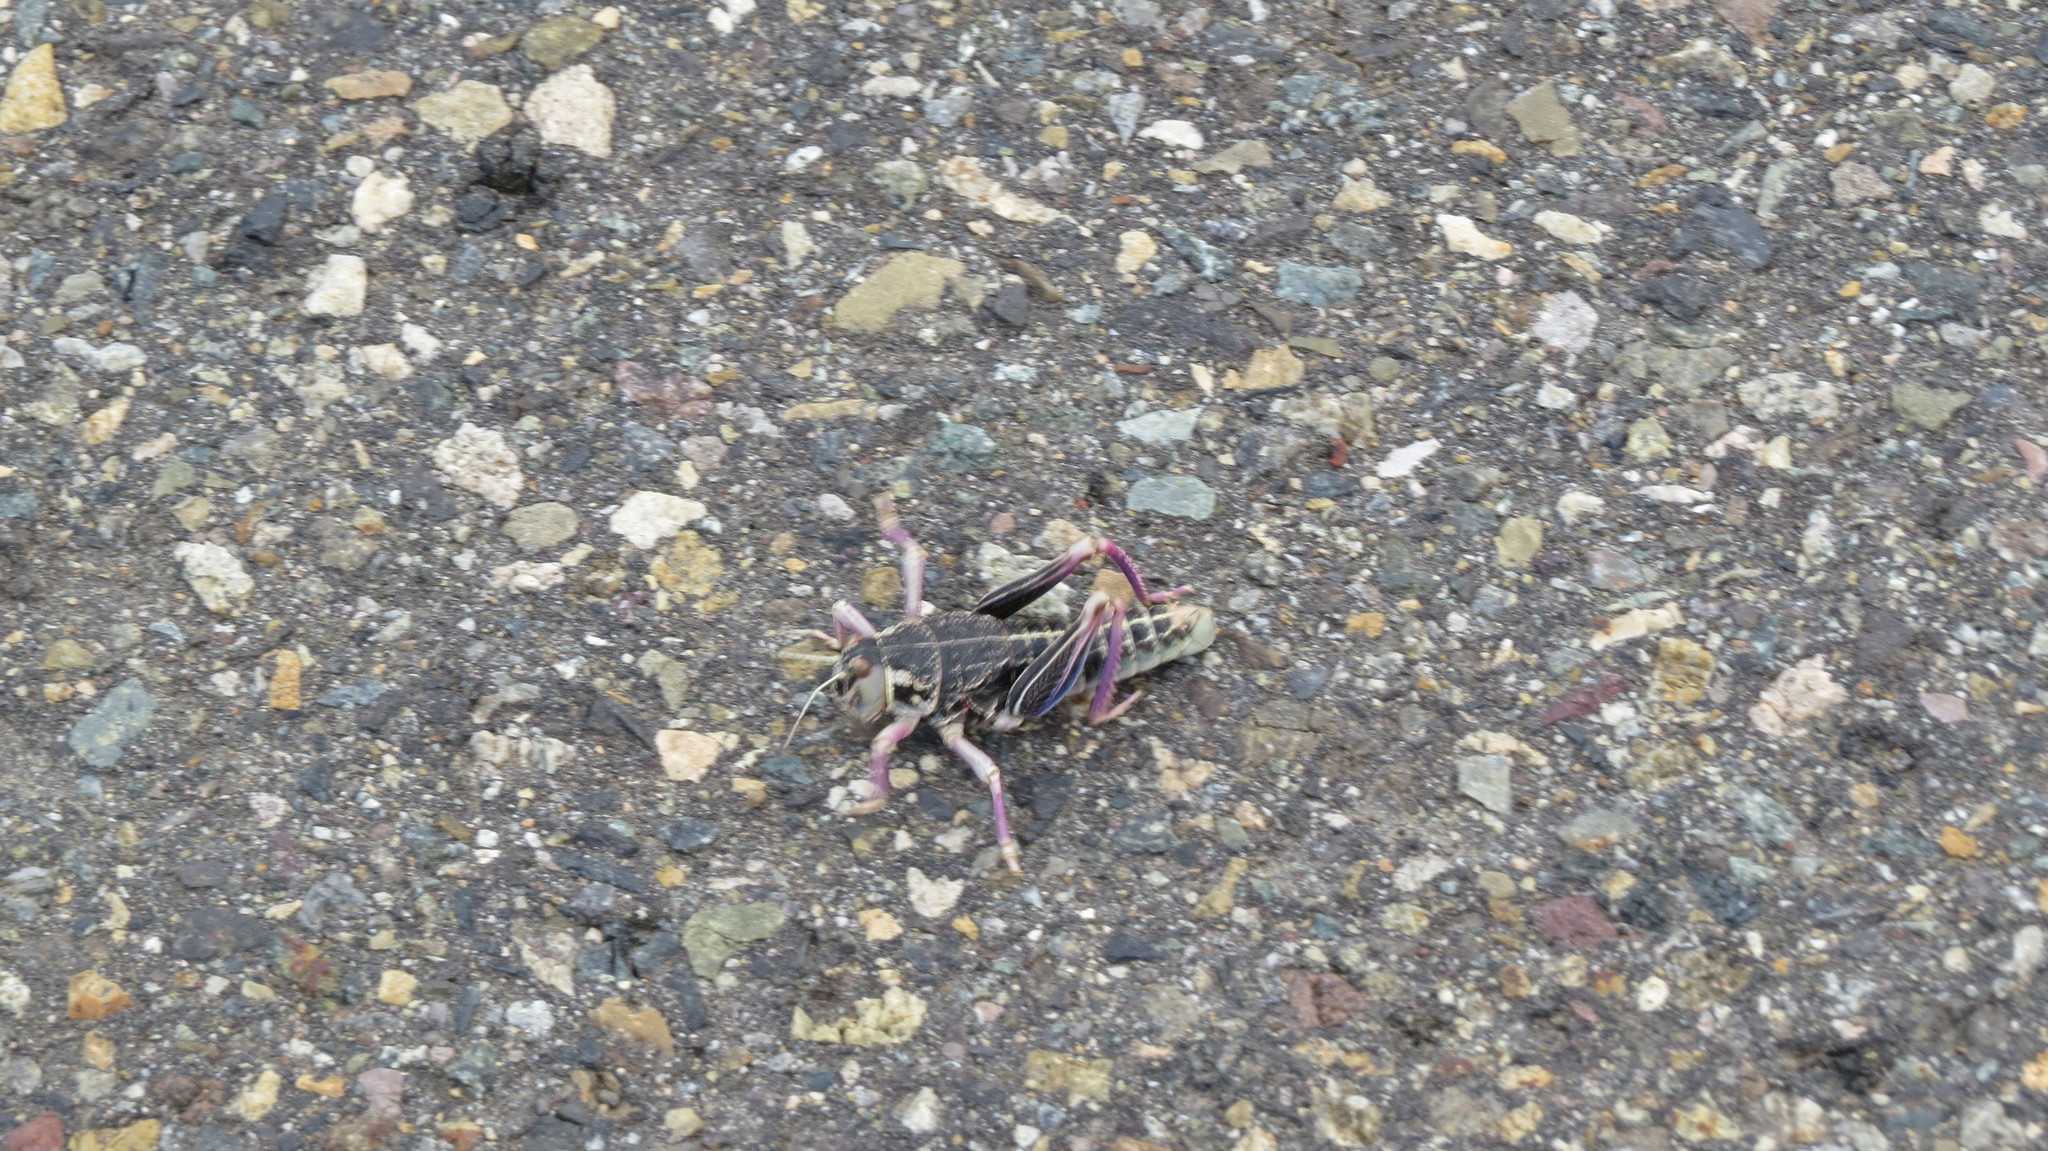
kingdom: Animalia
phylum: Arthropoda
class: Insecta
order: Orthoptera
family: Tristiridae
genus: Bufonacris
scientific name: Bufonacris claraziana
